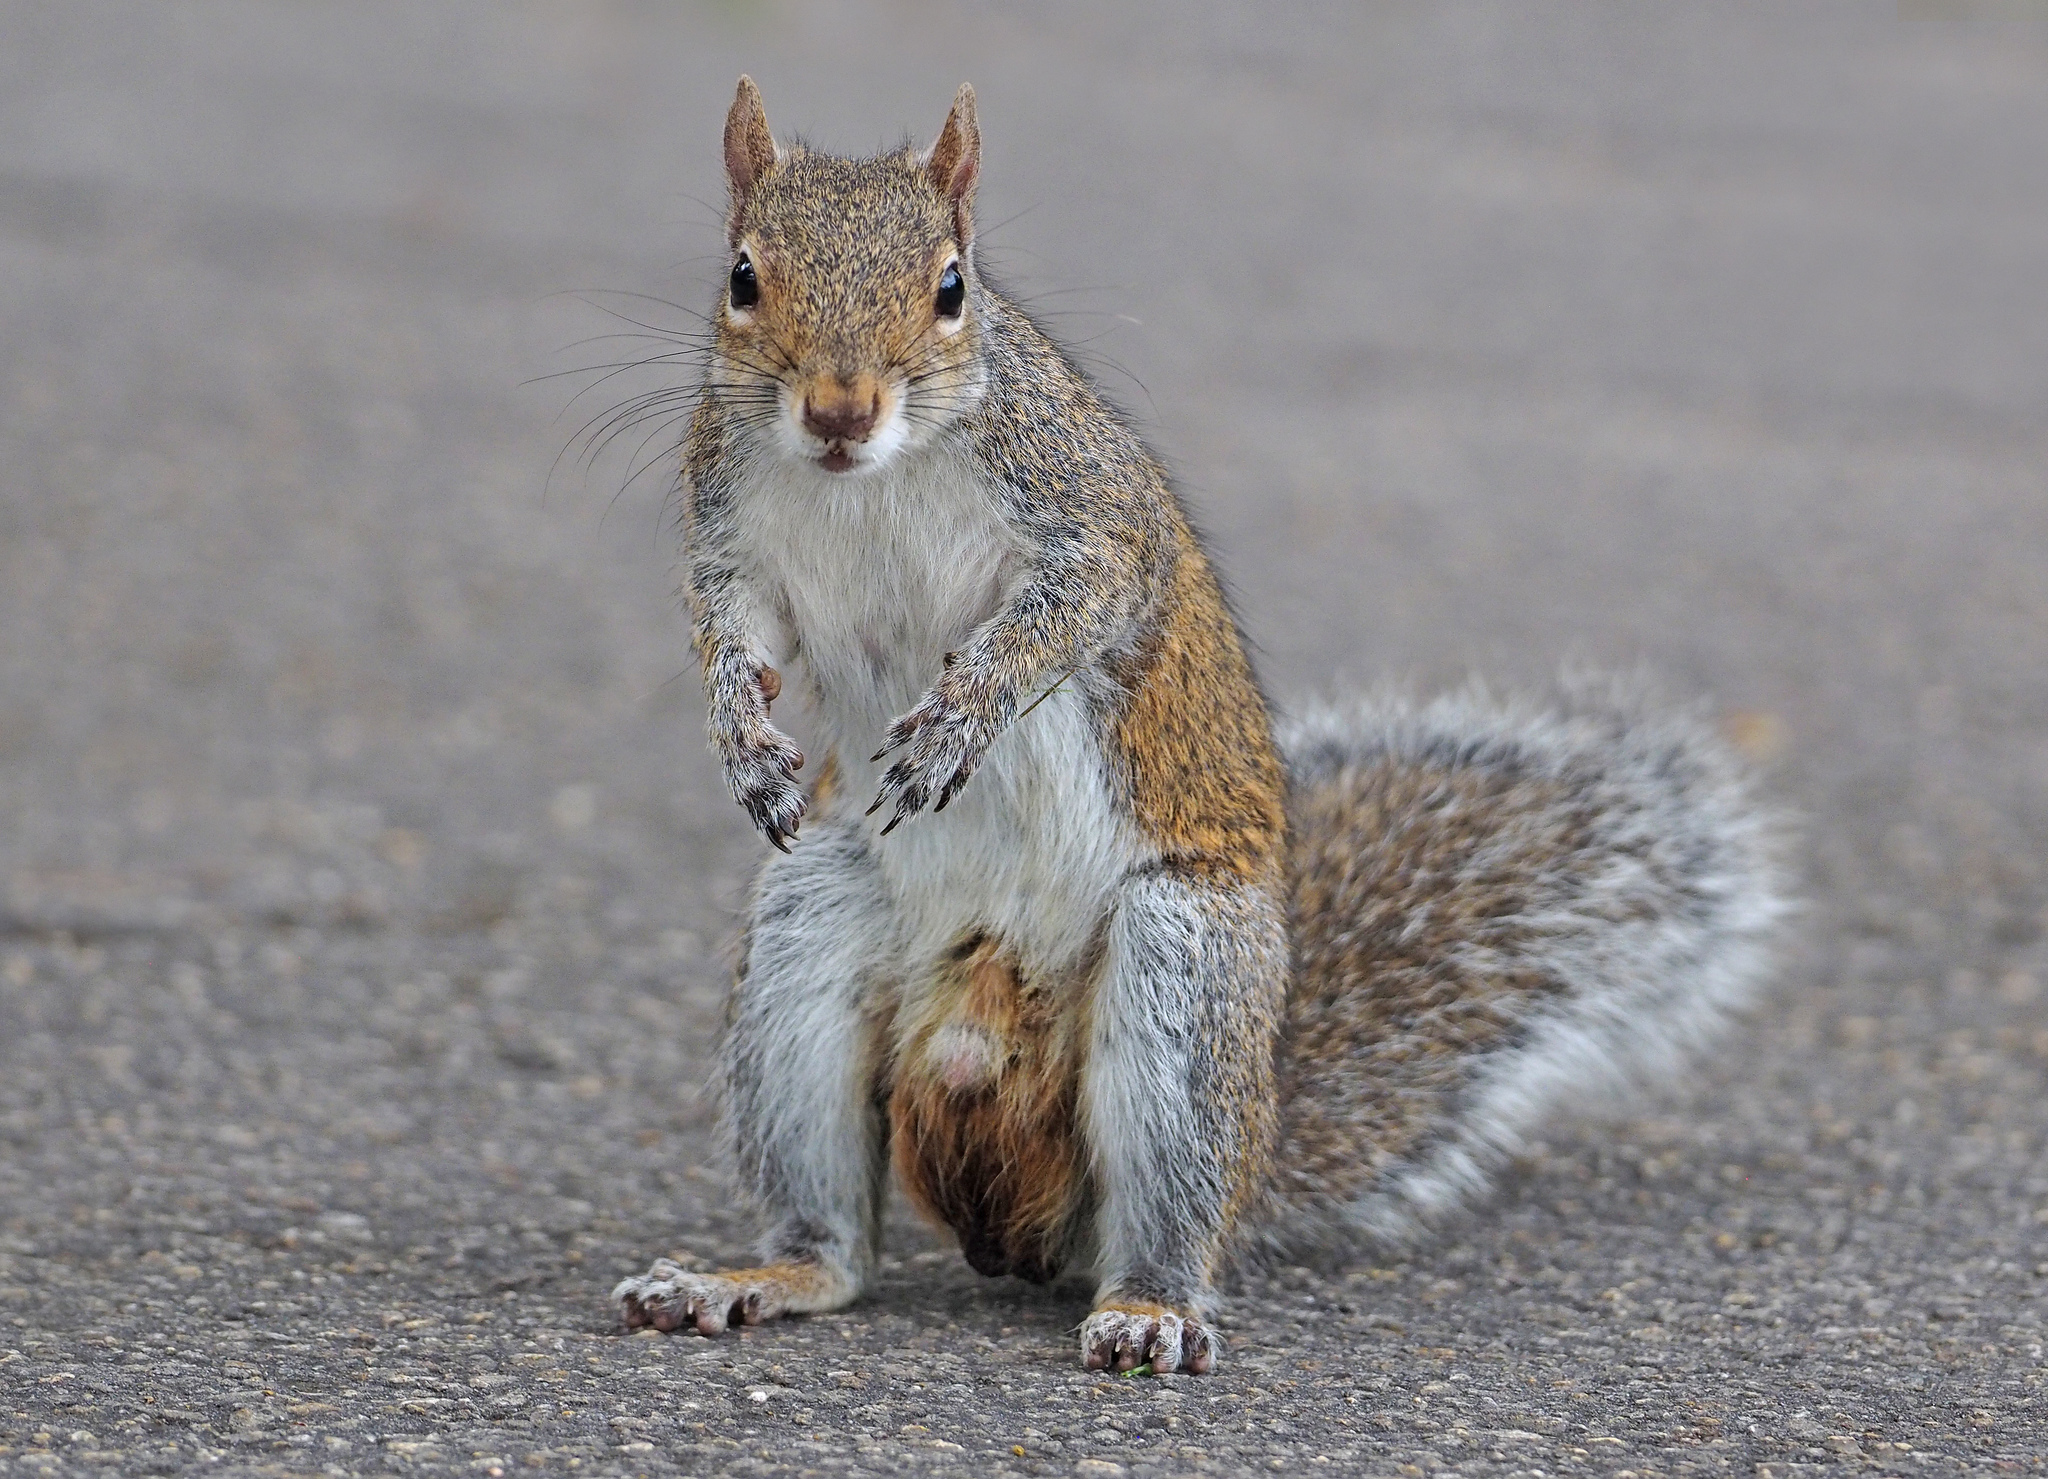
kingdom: Animalia
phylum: Chordata
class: Mammalia
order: Rodentia
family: Sciuridae
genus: Sciurus
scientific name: Sciurus carolinensis
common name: Eastern gray squirrel
